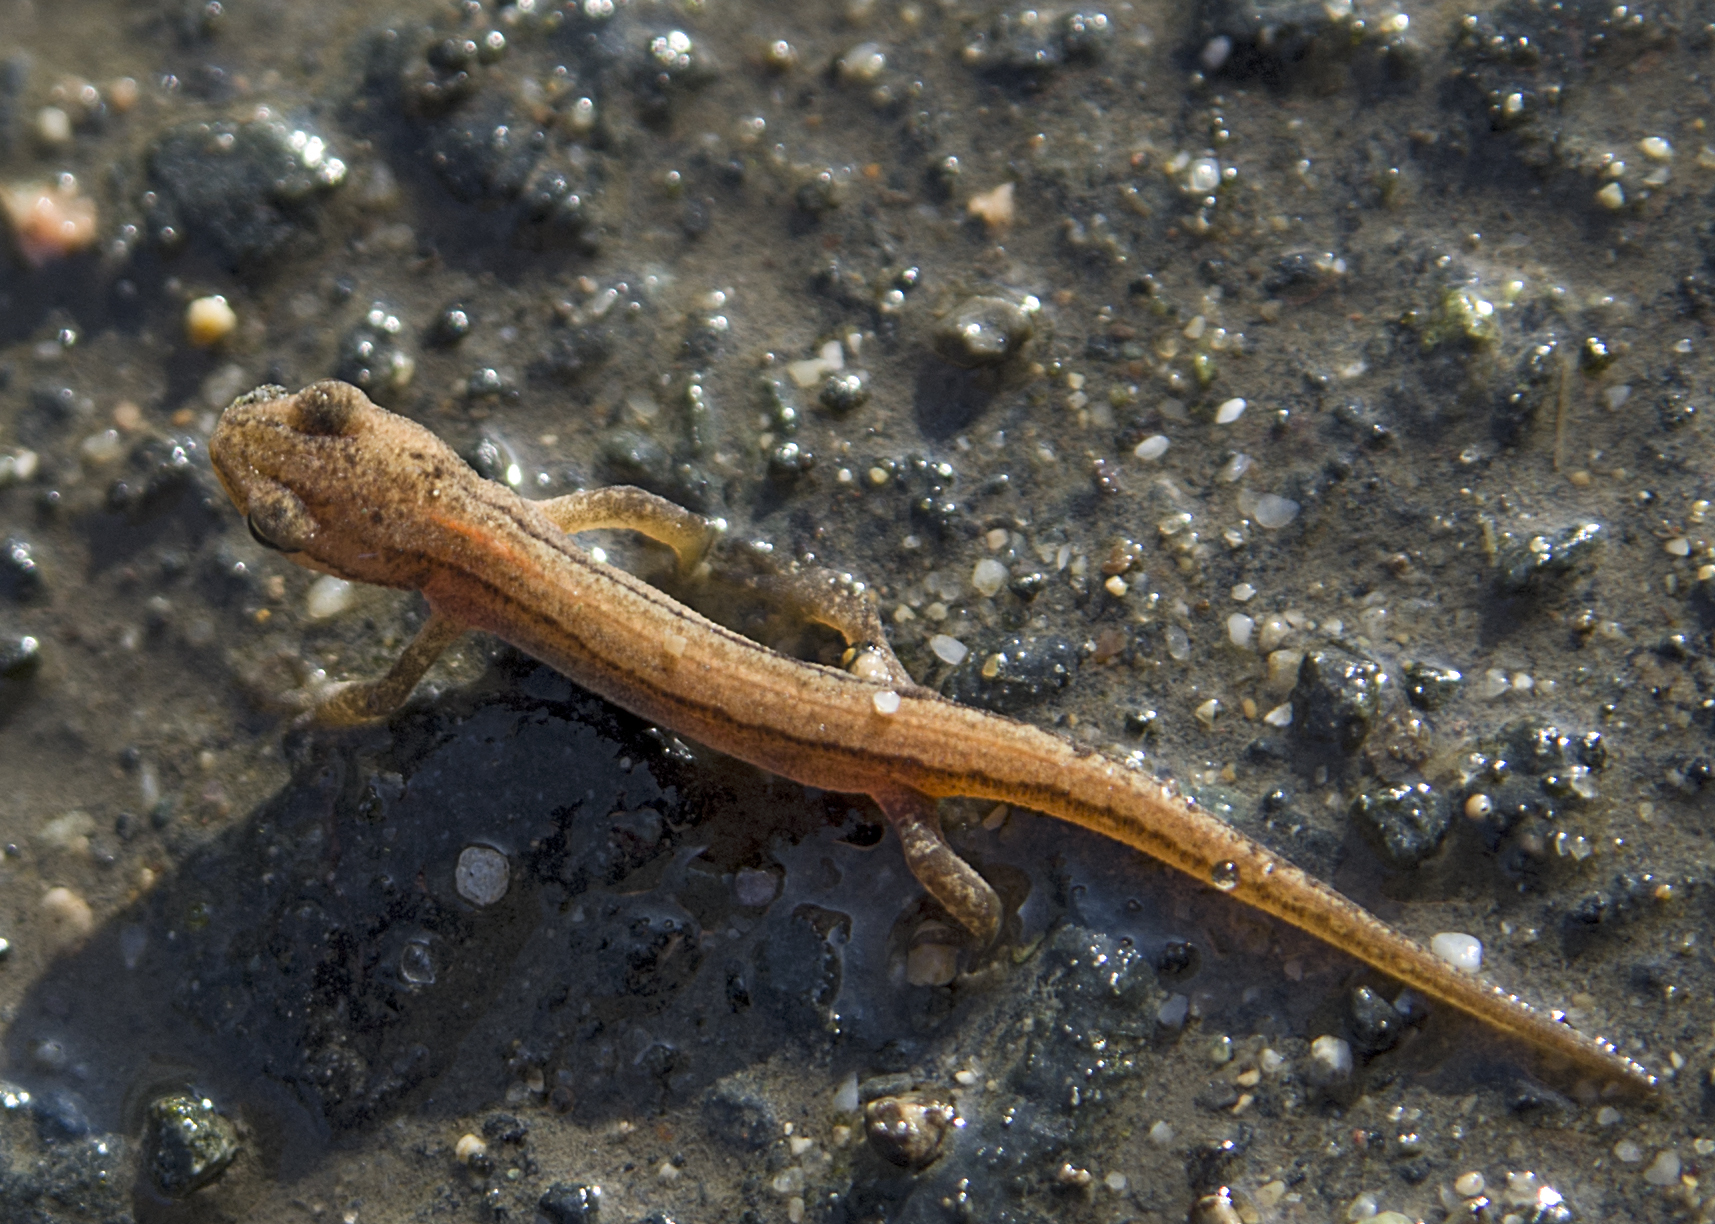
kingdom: Animalia
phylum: Chordata
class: Amphibia
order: Caudata
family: Salamandridae
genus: Lissotriton
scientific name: Lissotriton schmidtleri
